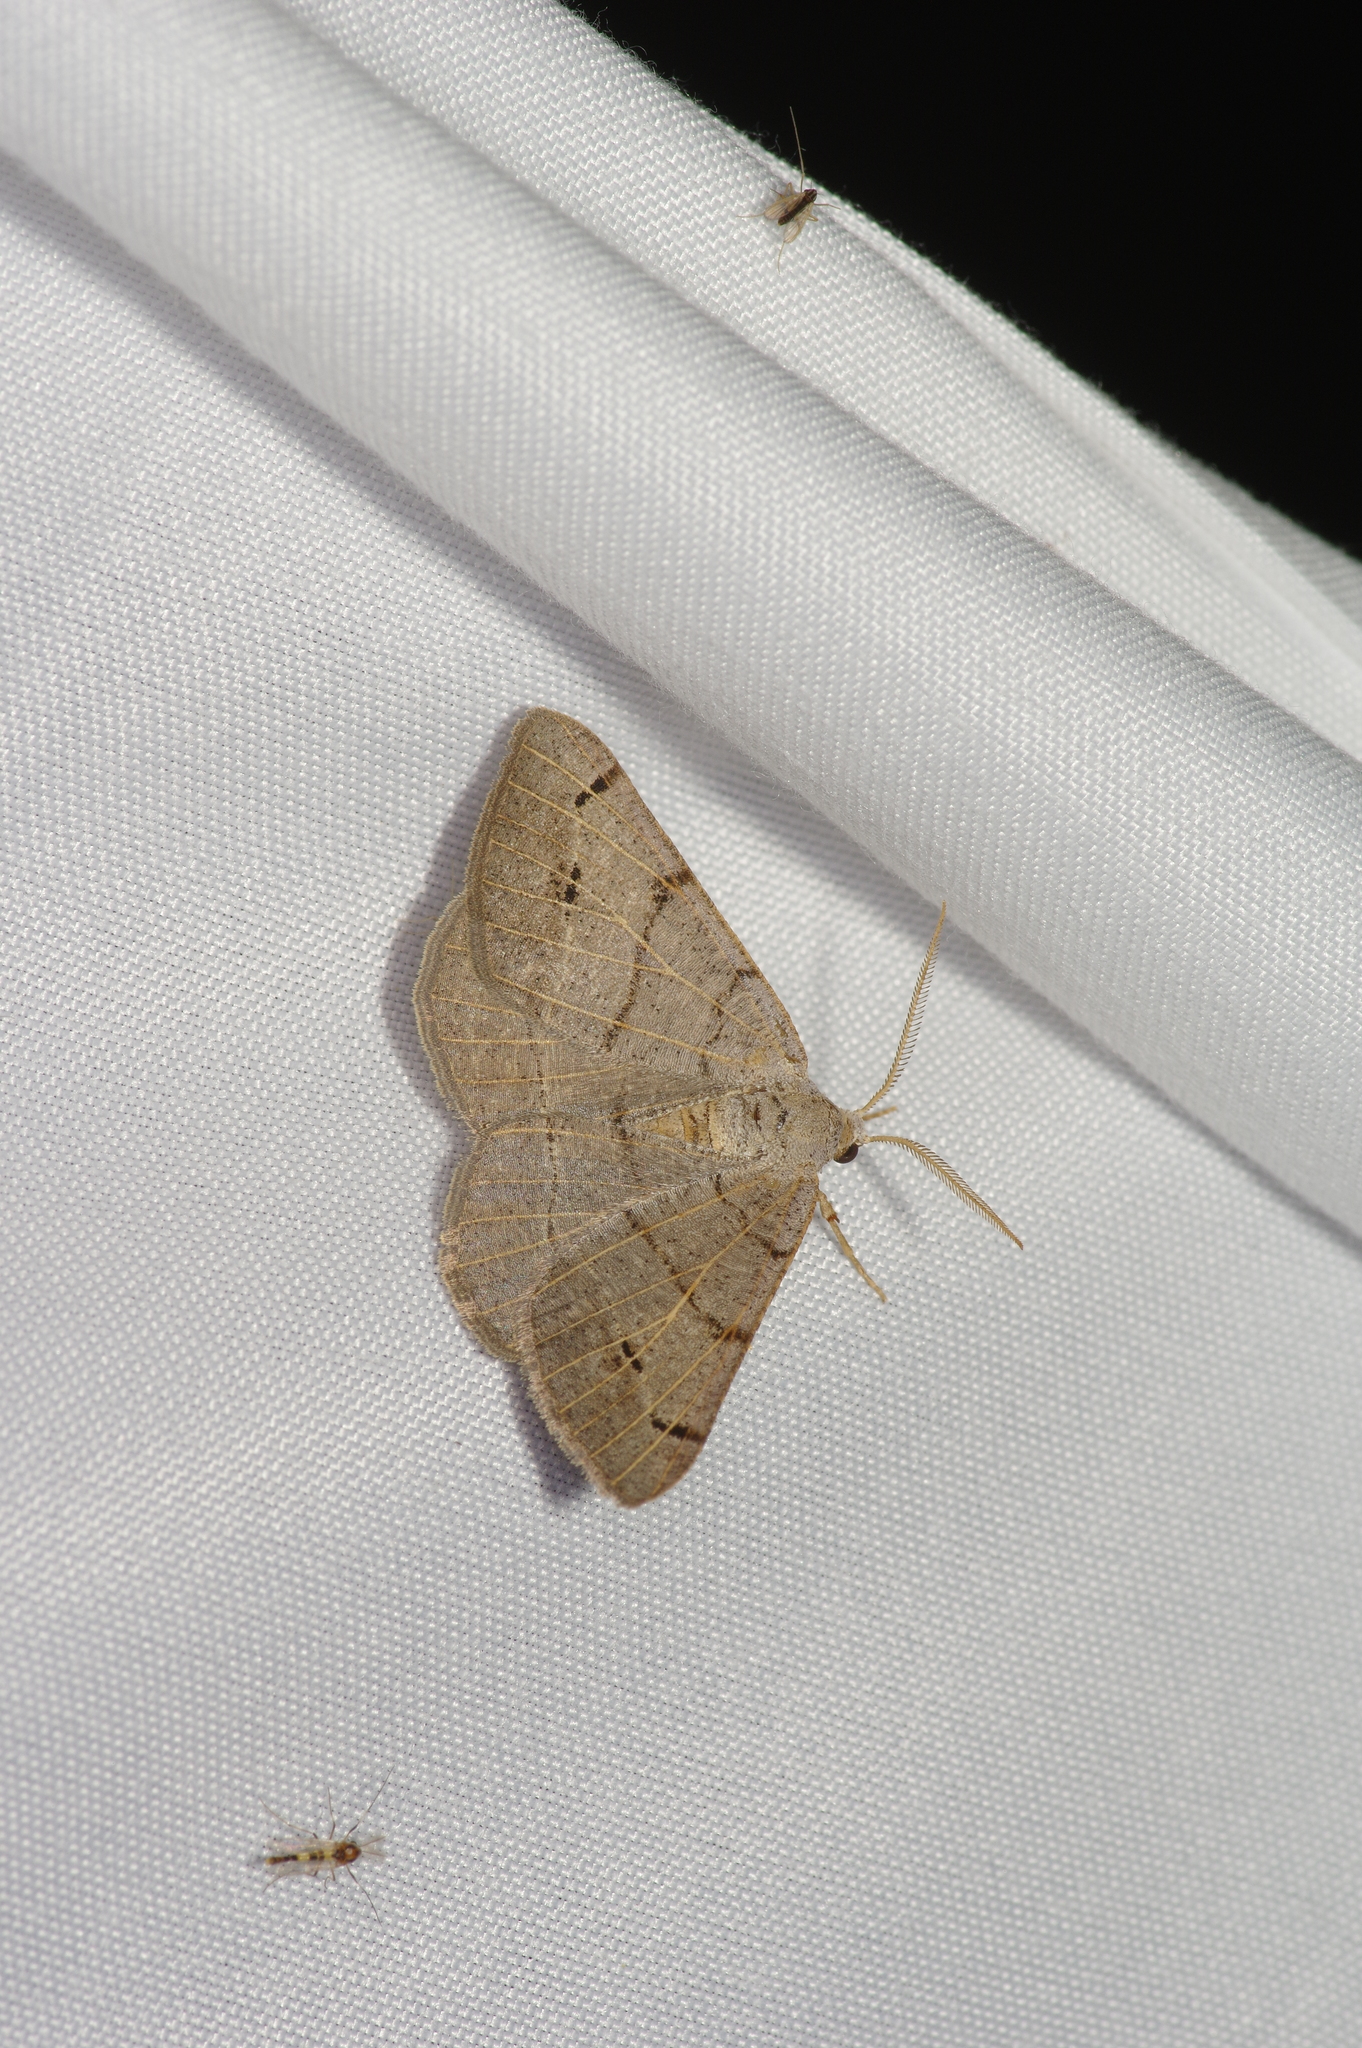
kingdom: Animalia
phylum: Arthropoda
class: Insecta
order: Lepidoptera
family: Geometridae
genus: Isturgia
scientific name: Isturgia dislocaria
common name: Pale-viened enconista
